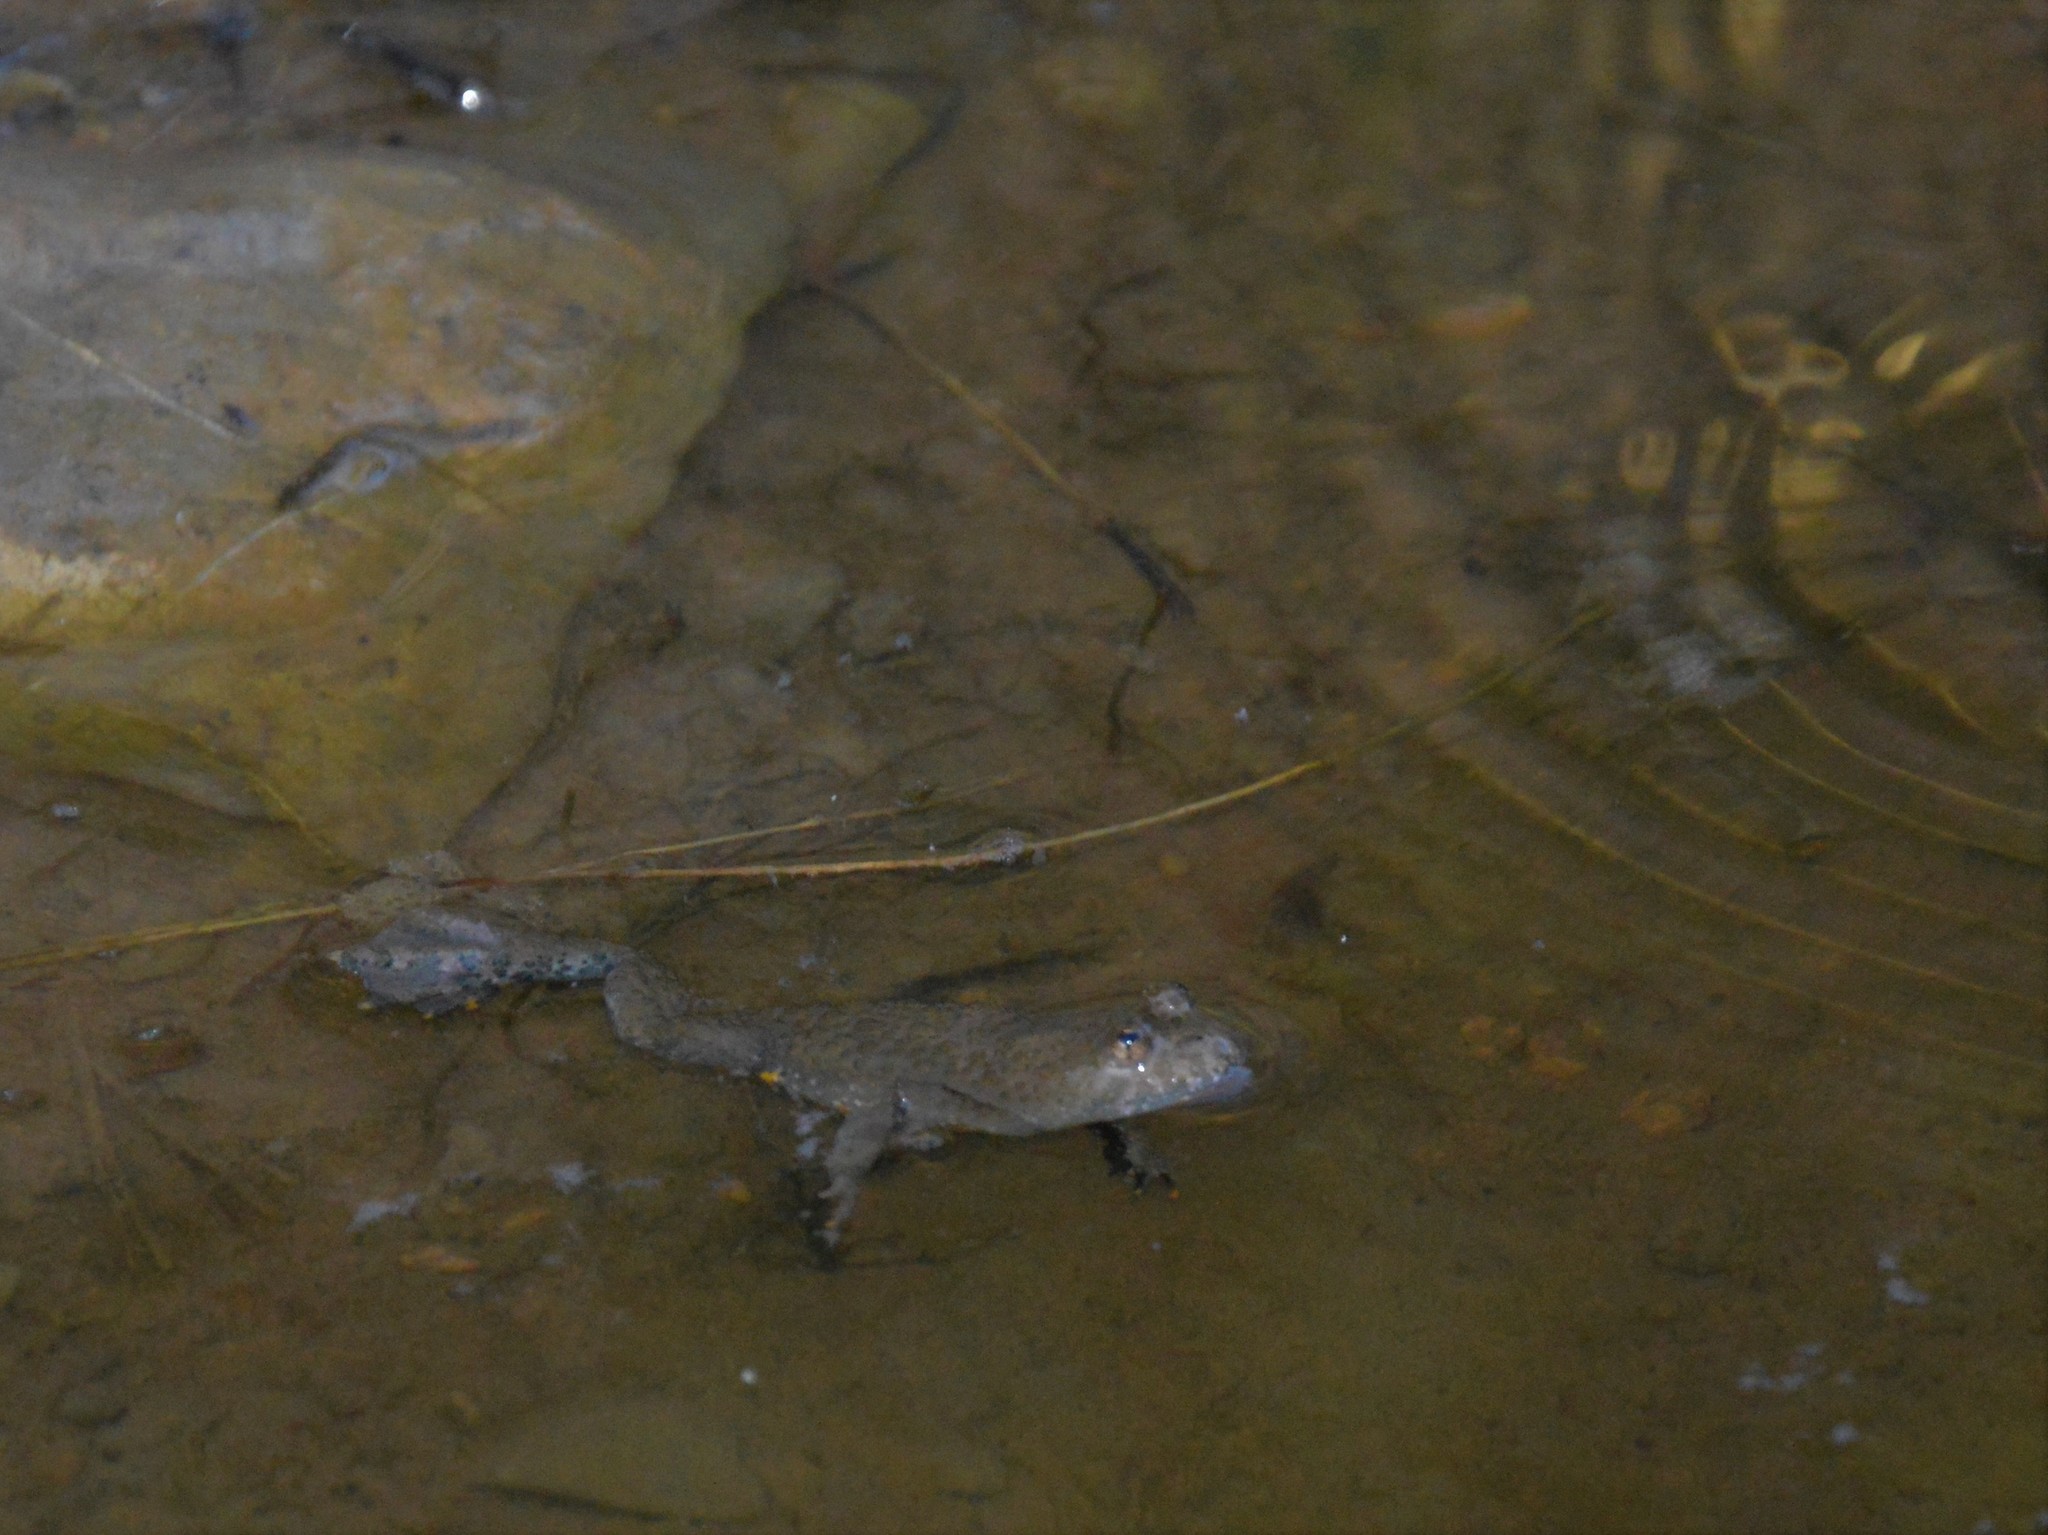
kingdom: Animalia
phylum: Chordata
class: Amphibia
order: Anura
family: Bombinatoridae
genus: Bombina
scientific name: Bombina variegata
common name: Yellow-bellied toad
